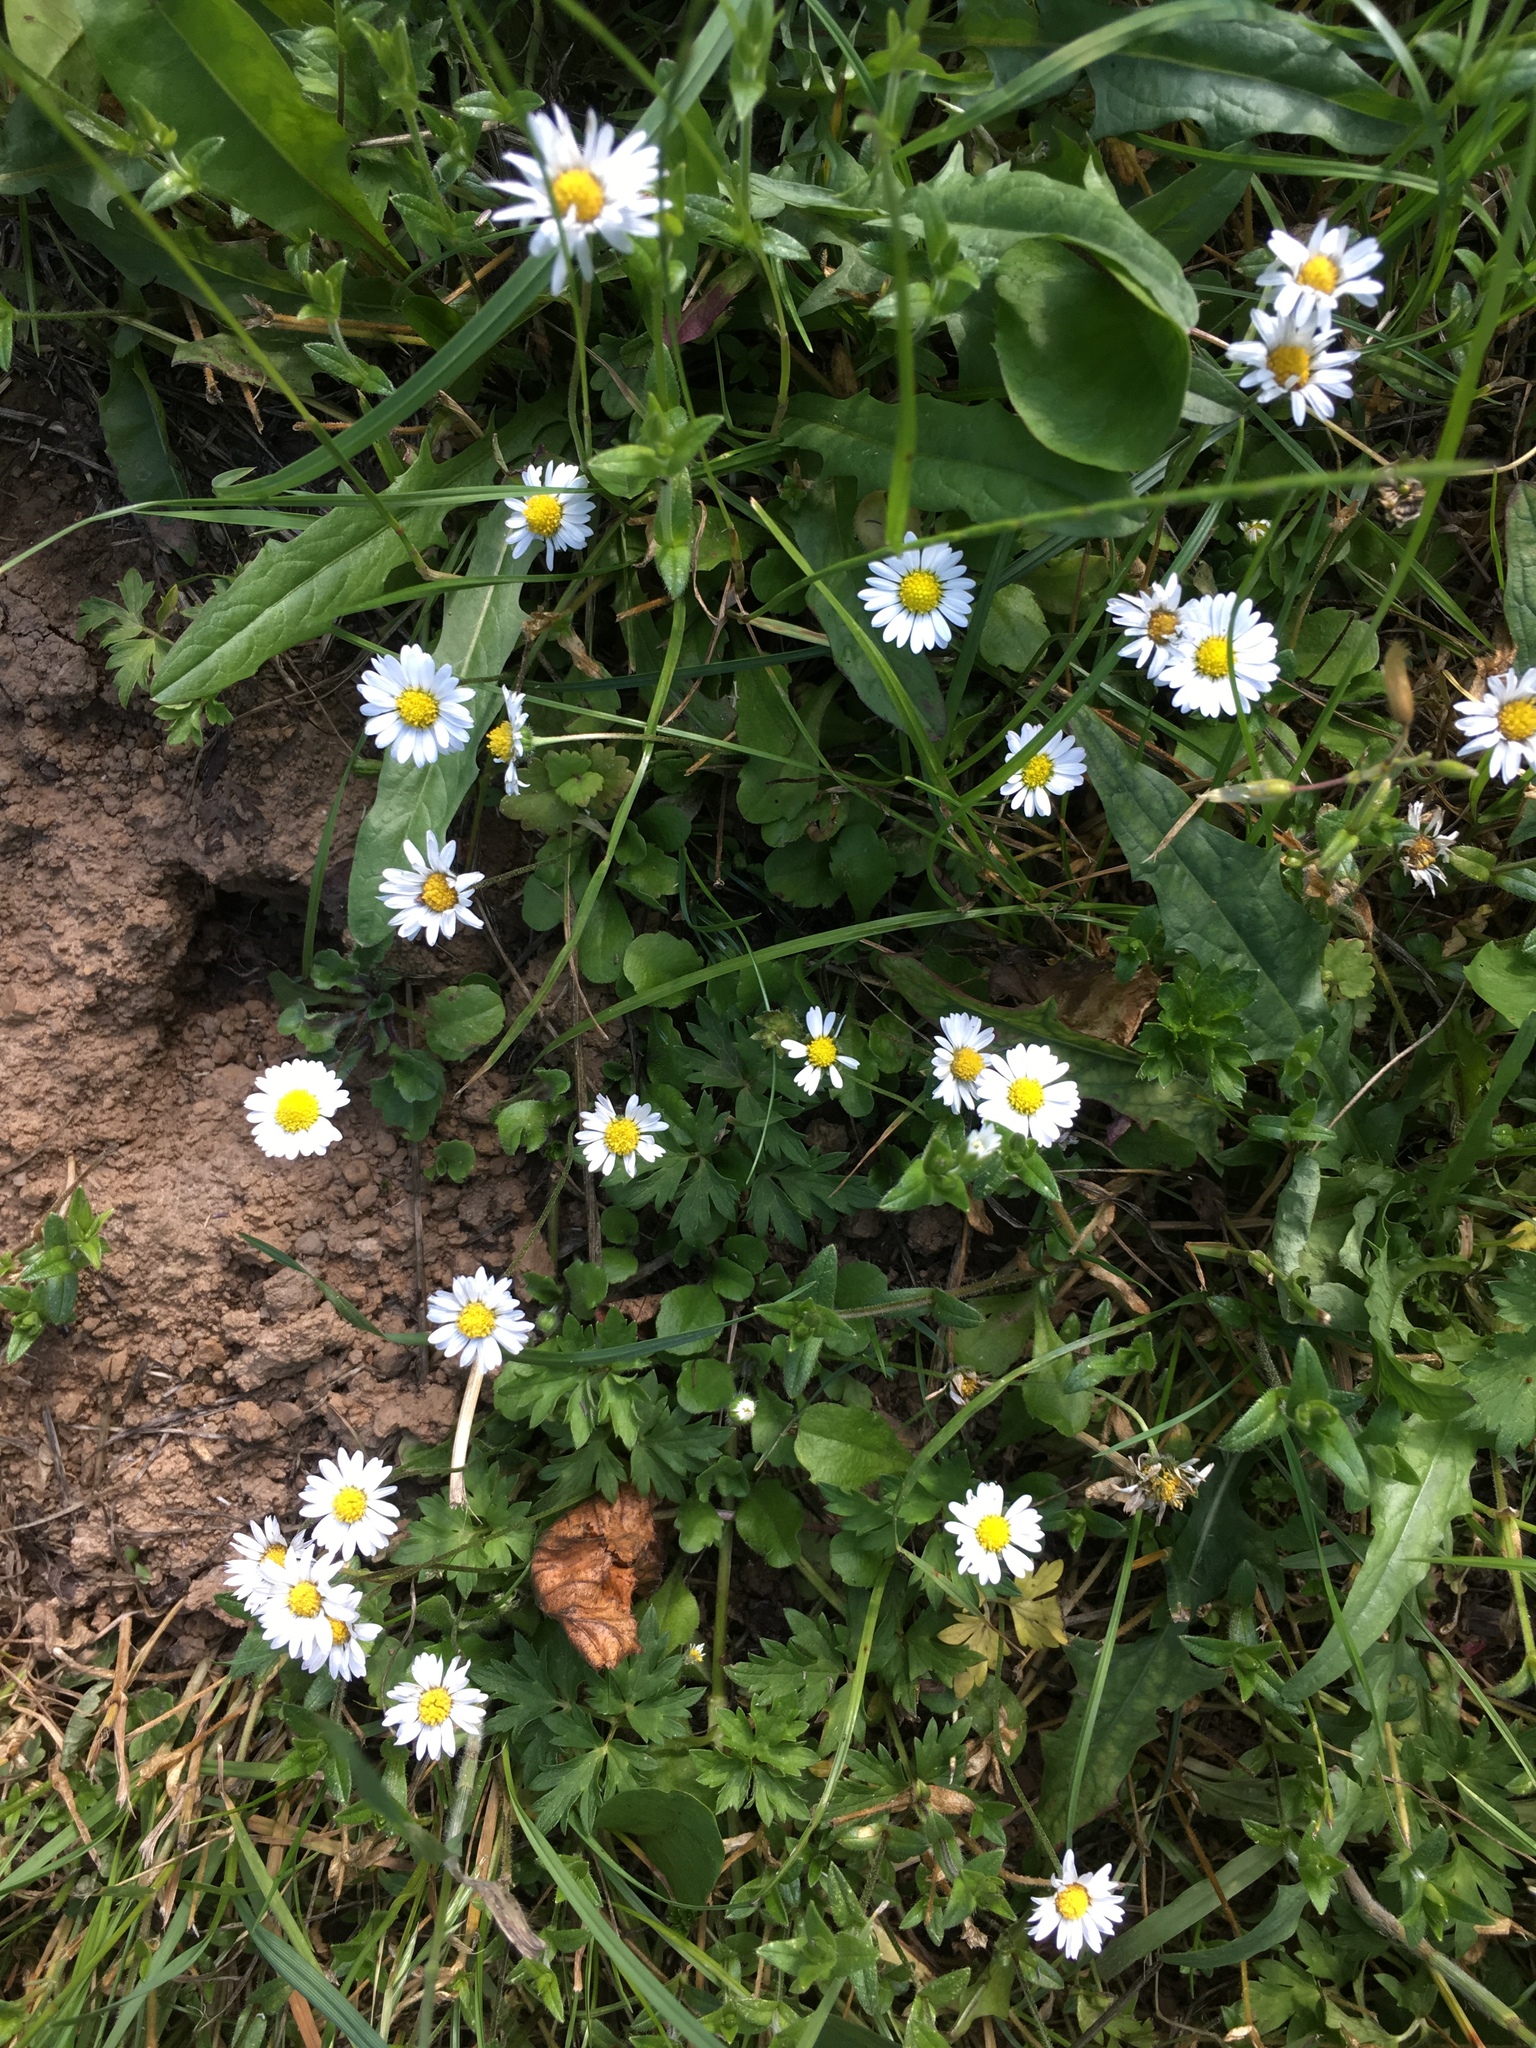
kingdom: Plantae
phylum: Tracheophyta
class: Magnoliopsida
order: Asterales
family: Asteraceae
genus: Bellis
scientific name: Bellis perennis
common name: Lawndaisy
